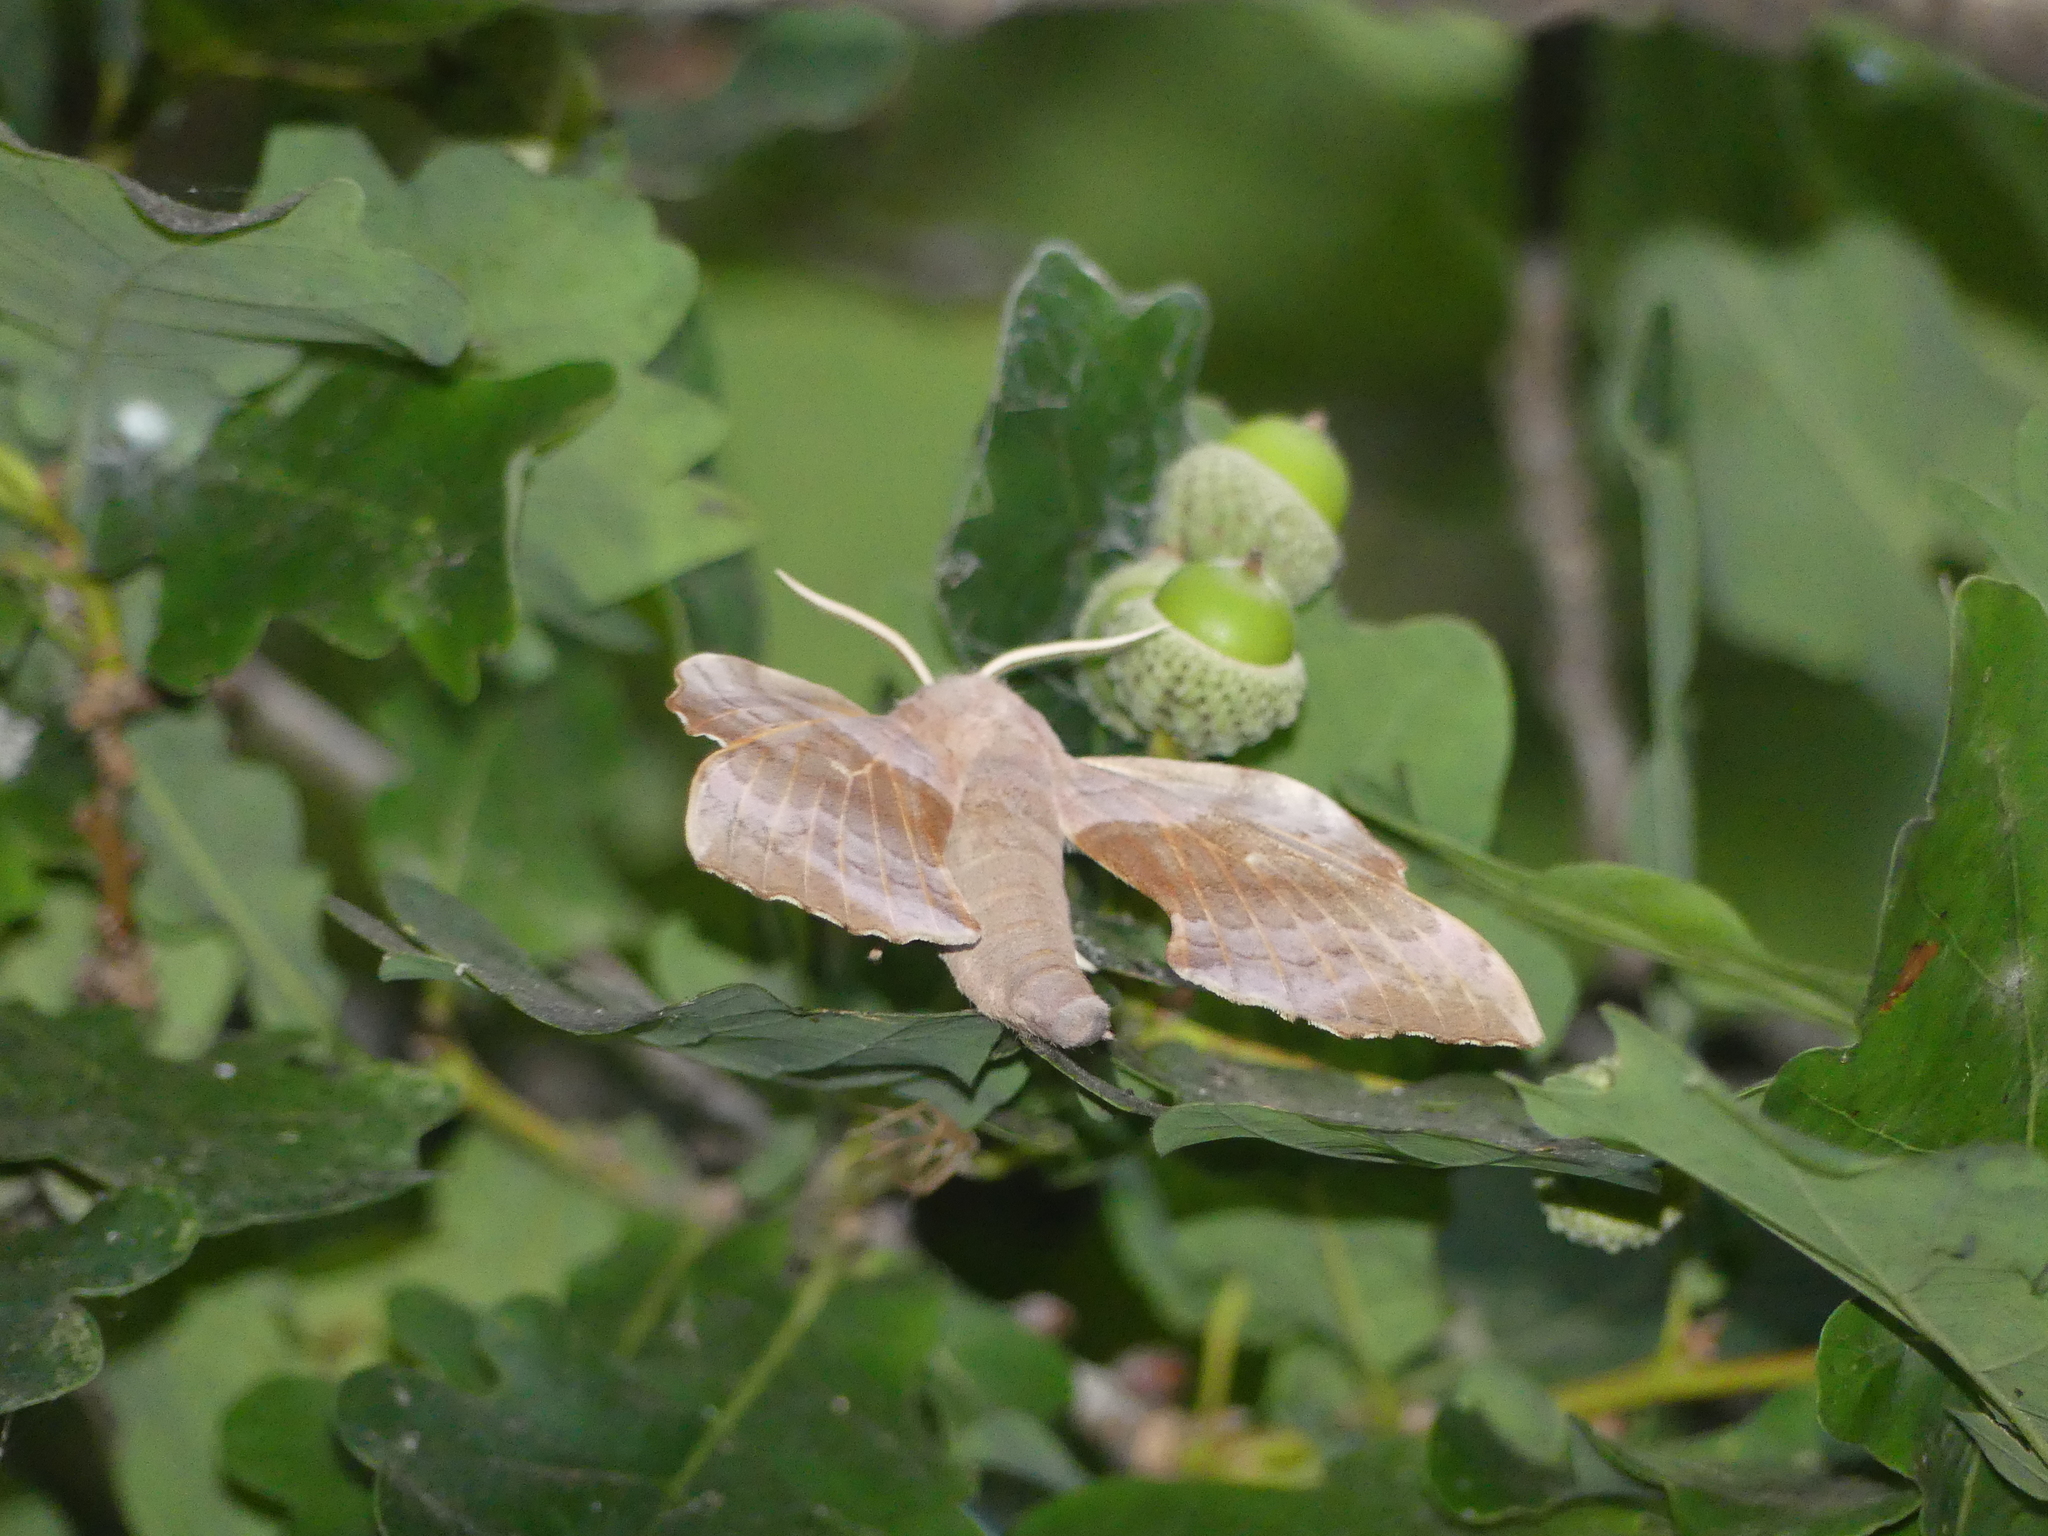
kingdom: Animalia
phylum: Arthropoda
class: Insecta
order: Lepidoptera
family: Sphingidae
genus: Laothoe
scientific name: Laothoe populi
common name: Poplar hawk-moth
